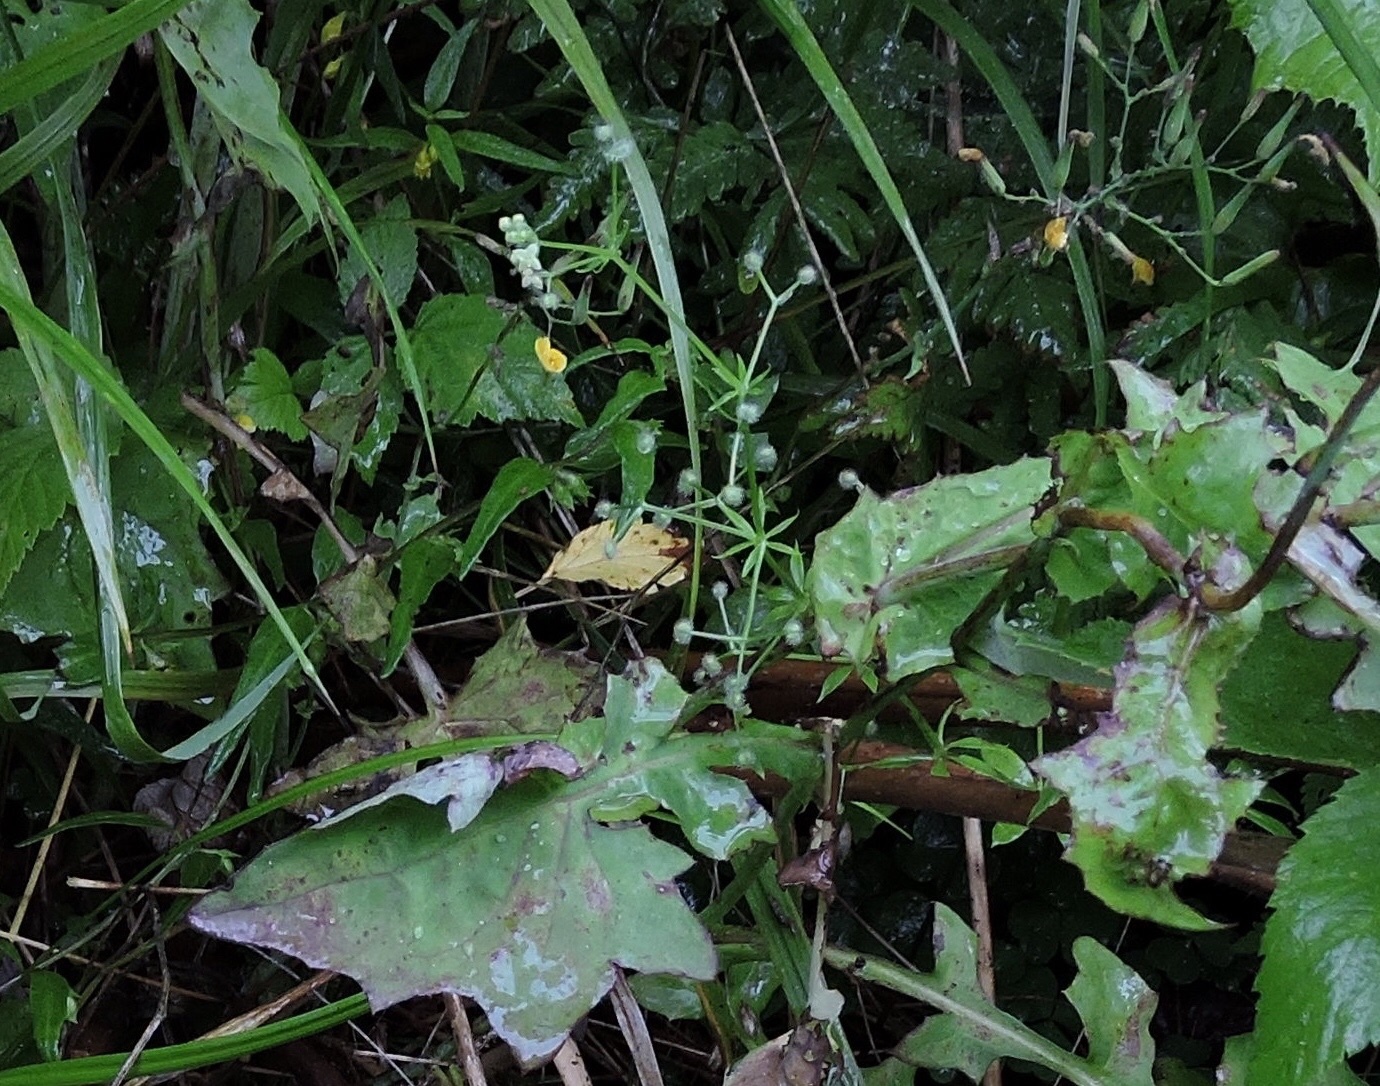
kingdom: Plantae
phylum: Tracheophyta
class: Magnoliopsida
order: Gentianales
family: Rubiaceae
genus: Galium
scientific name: Galium triflorum
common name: Fragrant bedstraw
